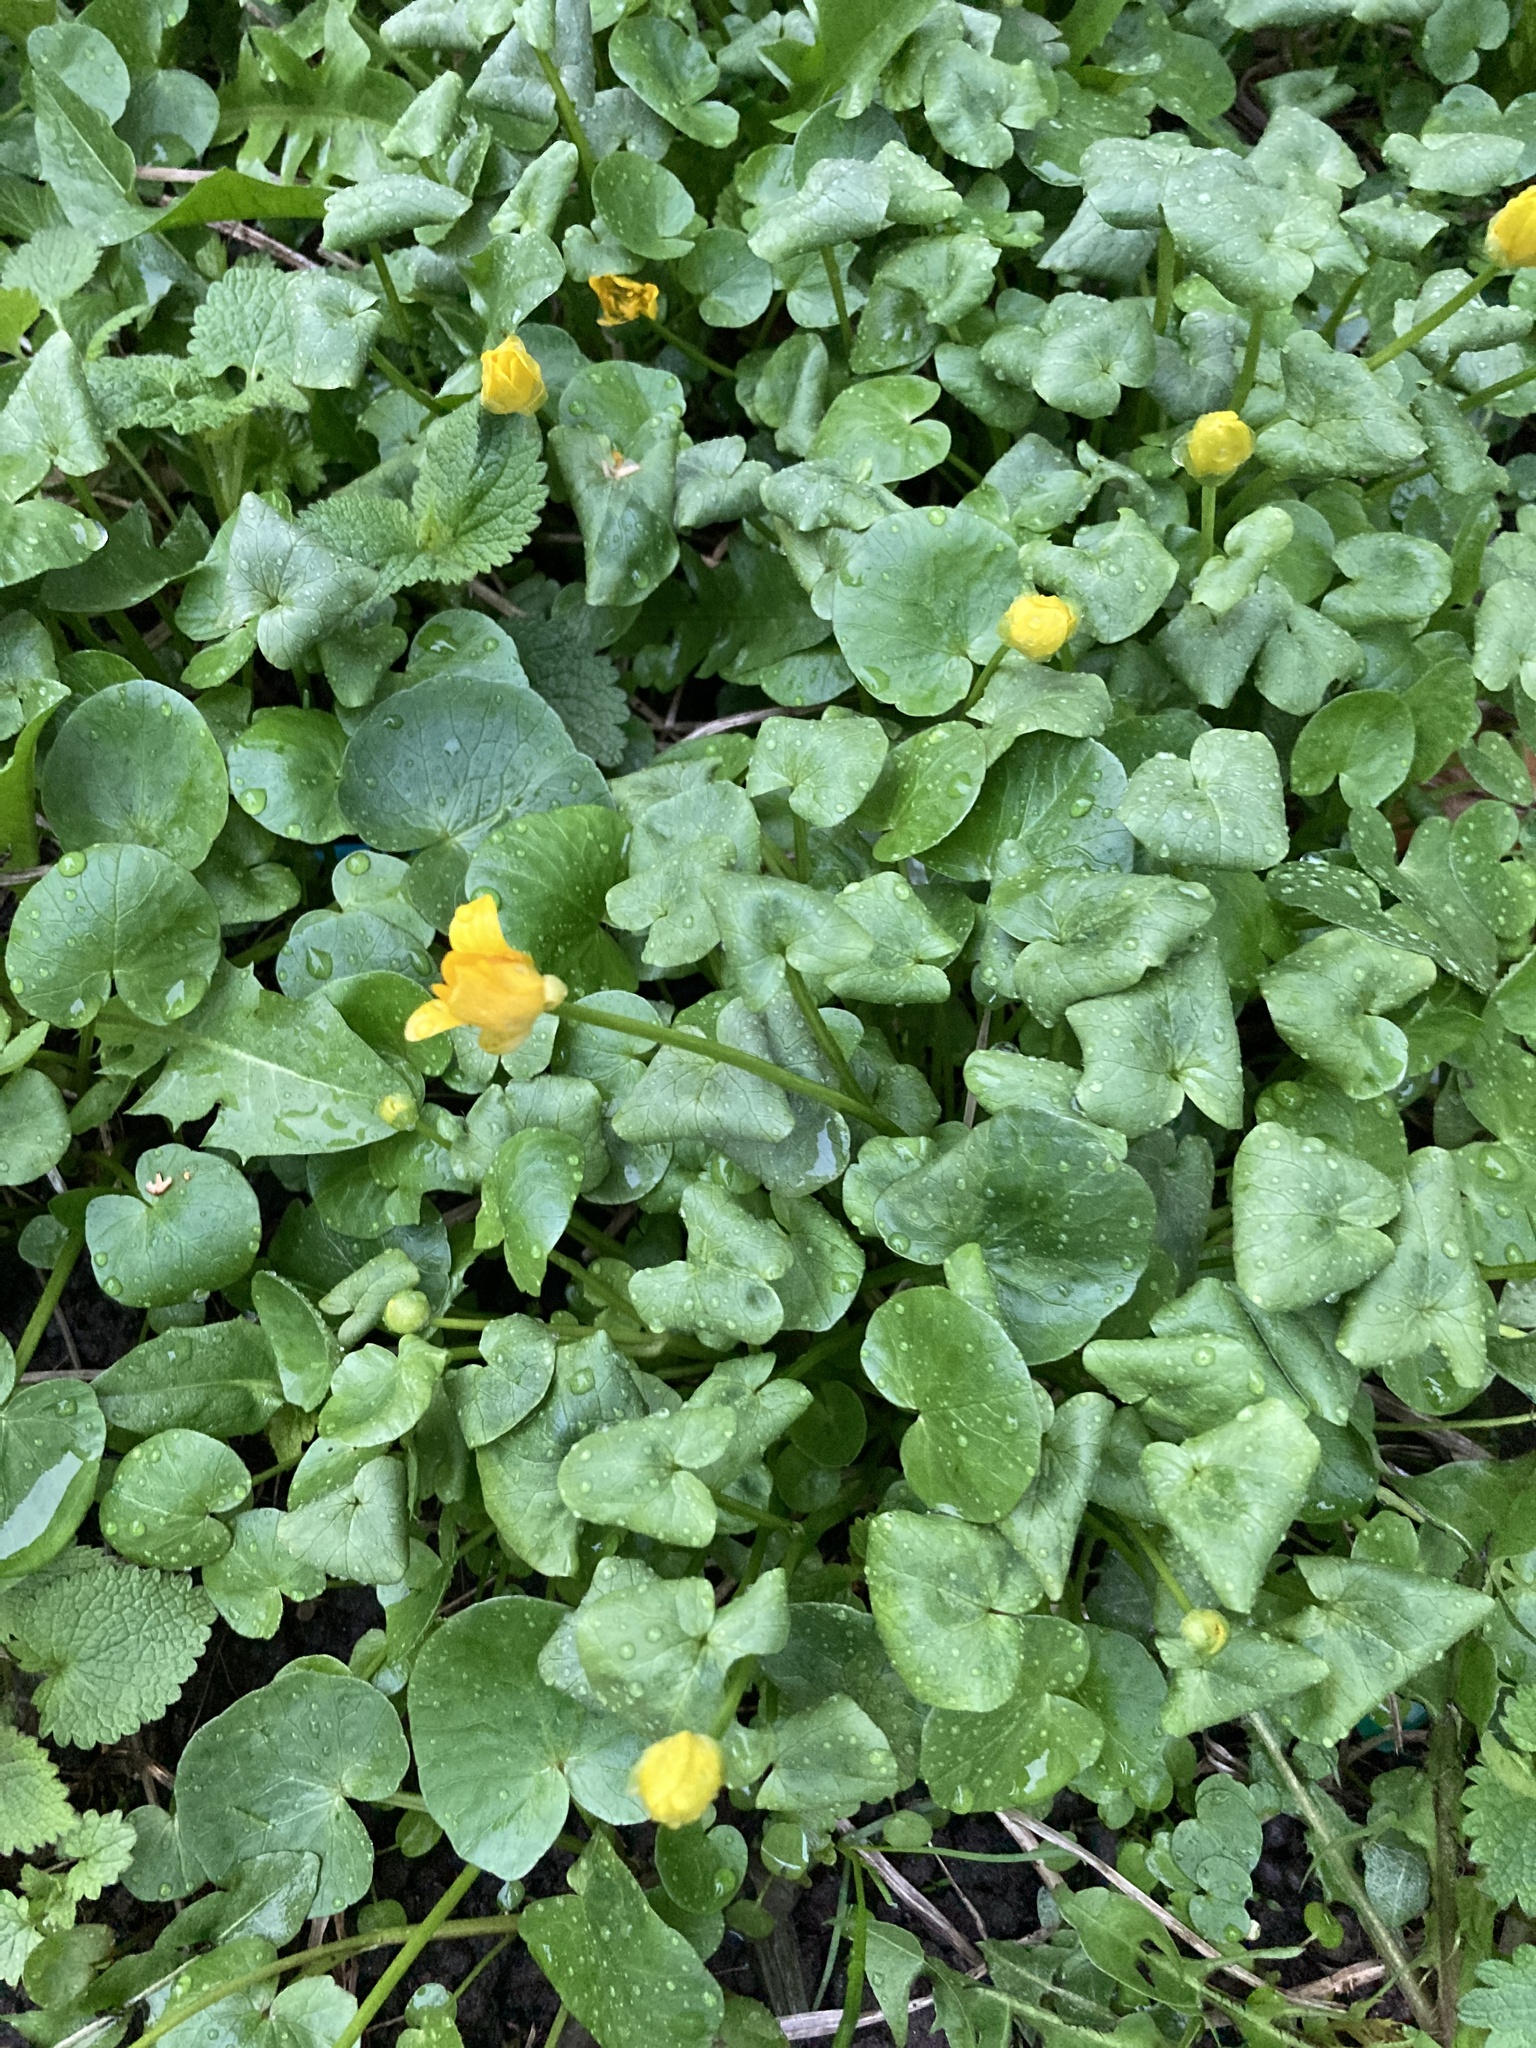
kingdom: Plantae
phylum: Tracheophyta
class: Magnoliopsida
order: Ranunculales
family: Ranunculaceae
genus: Ficaria
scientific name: Ficaria verna
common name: Lesser celandine
